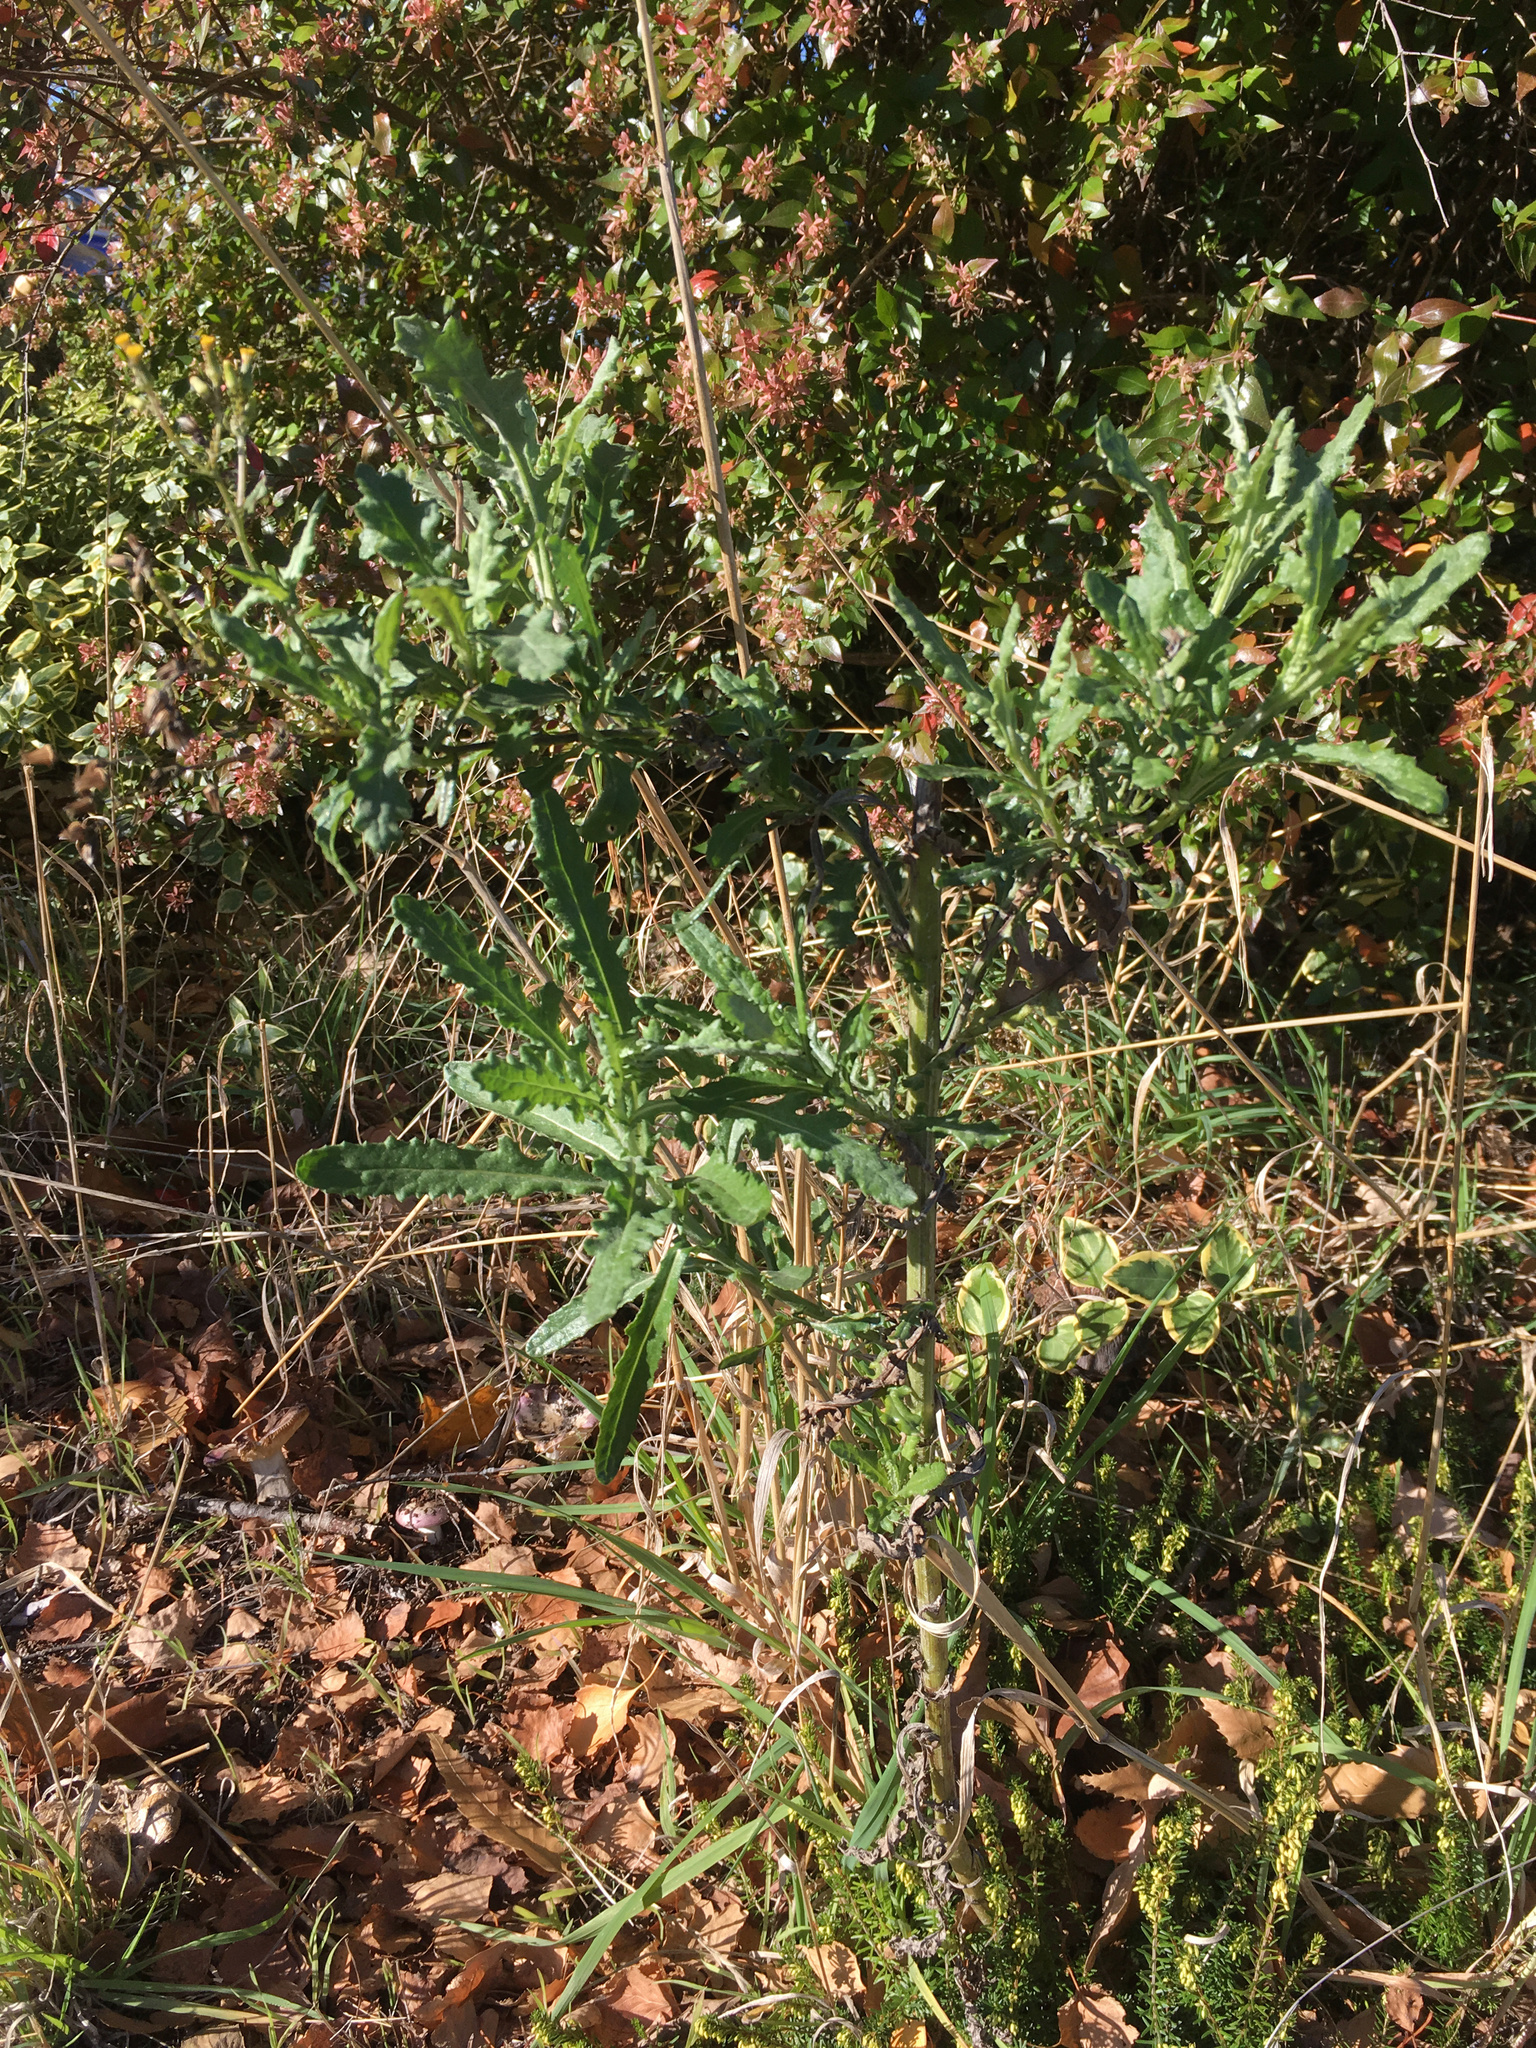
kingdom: Plantae
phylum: Tracheophyta
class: Magnoliopsida
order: Asterales
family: Asteraceae
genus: Senecio
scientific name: Senecio glomeratus
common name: Cutleaf burnweed
